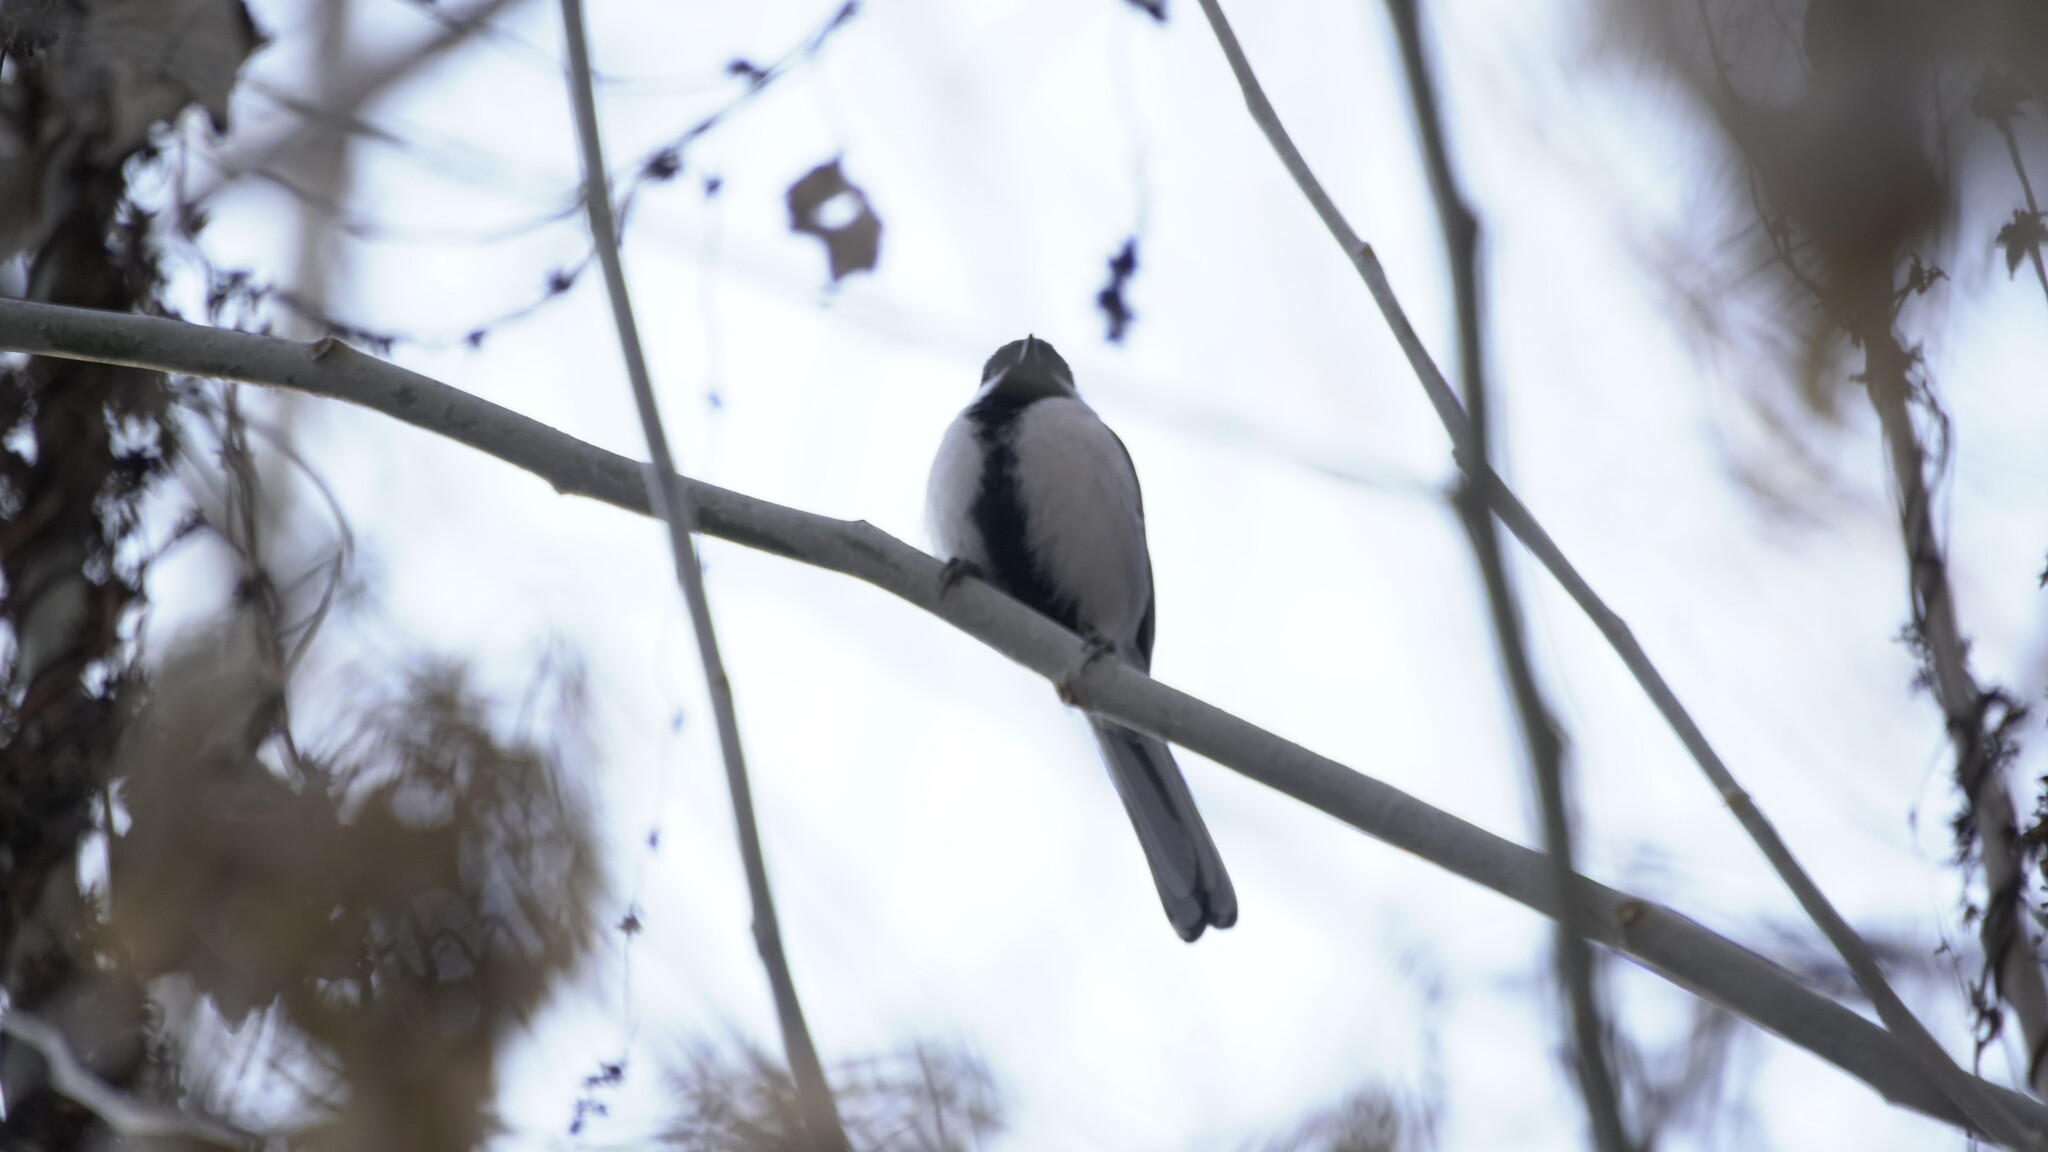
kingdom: Animalia
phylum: Chordata
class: Aves
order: Passeriformes
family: Paridae
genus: Parus
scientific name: Parus major
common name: Great tit
